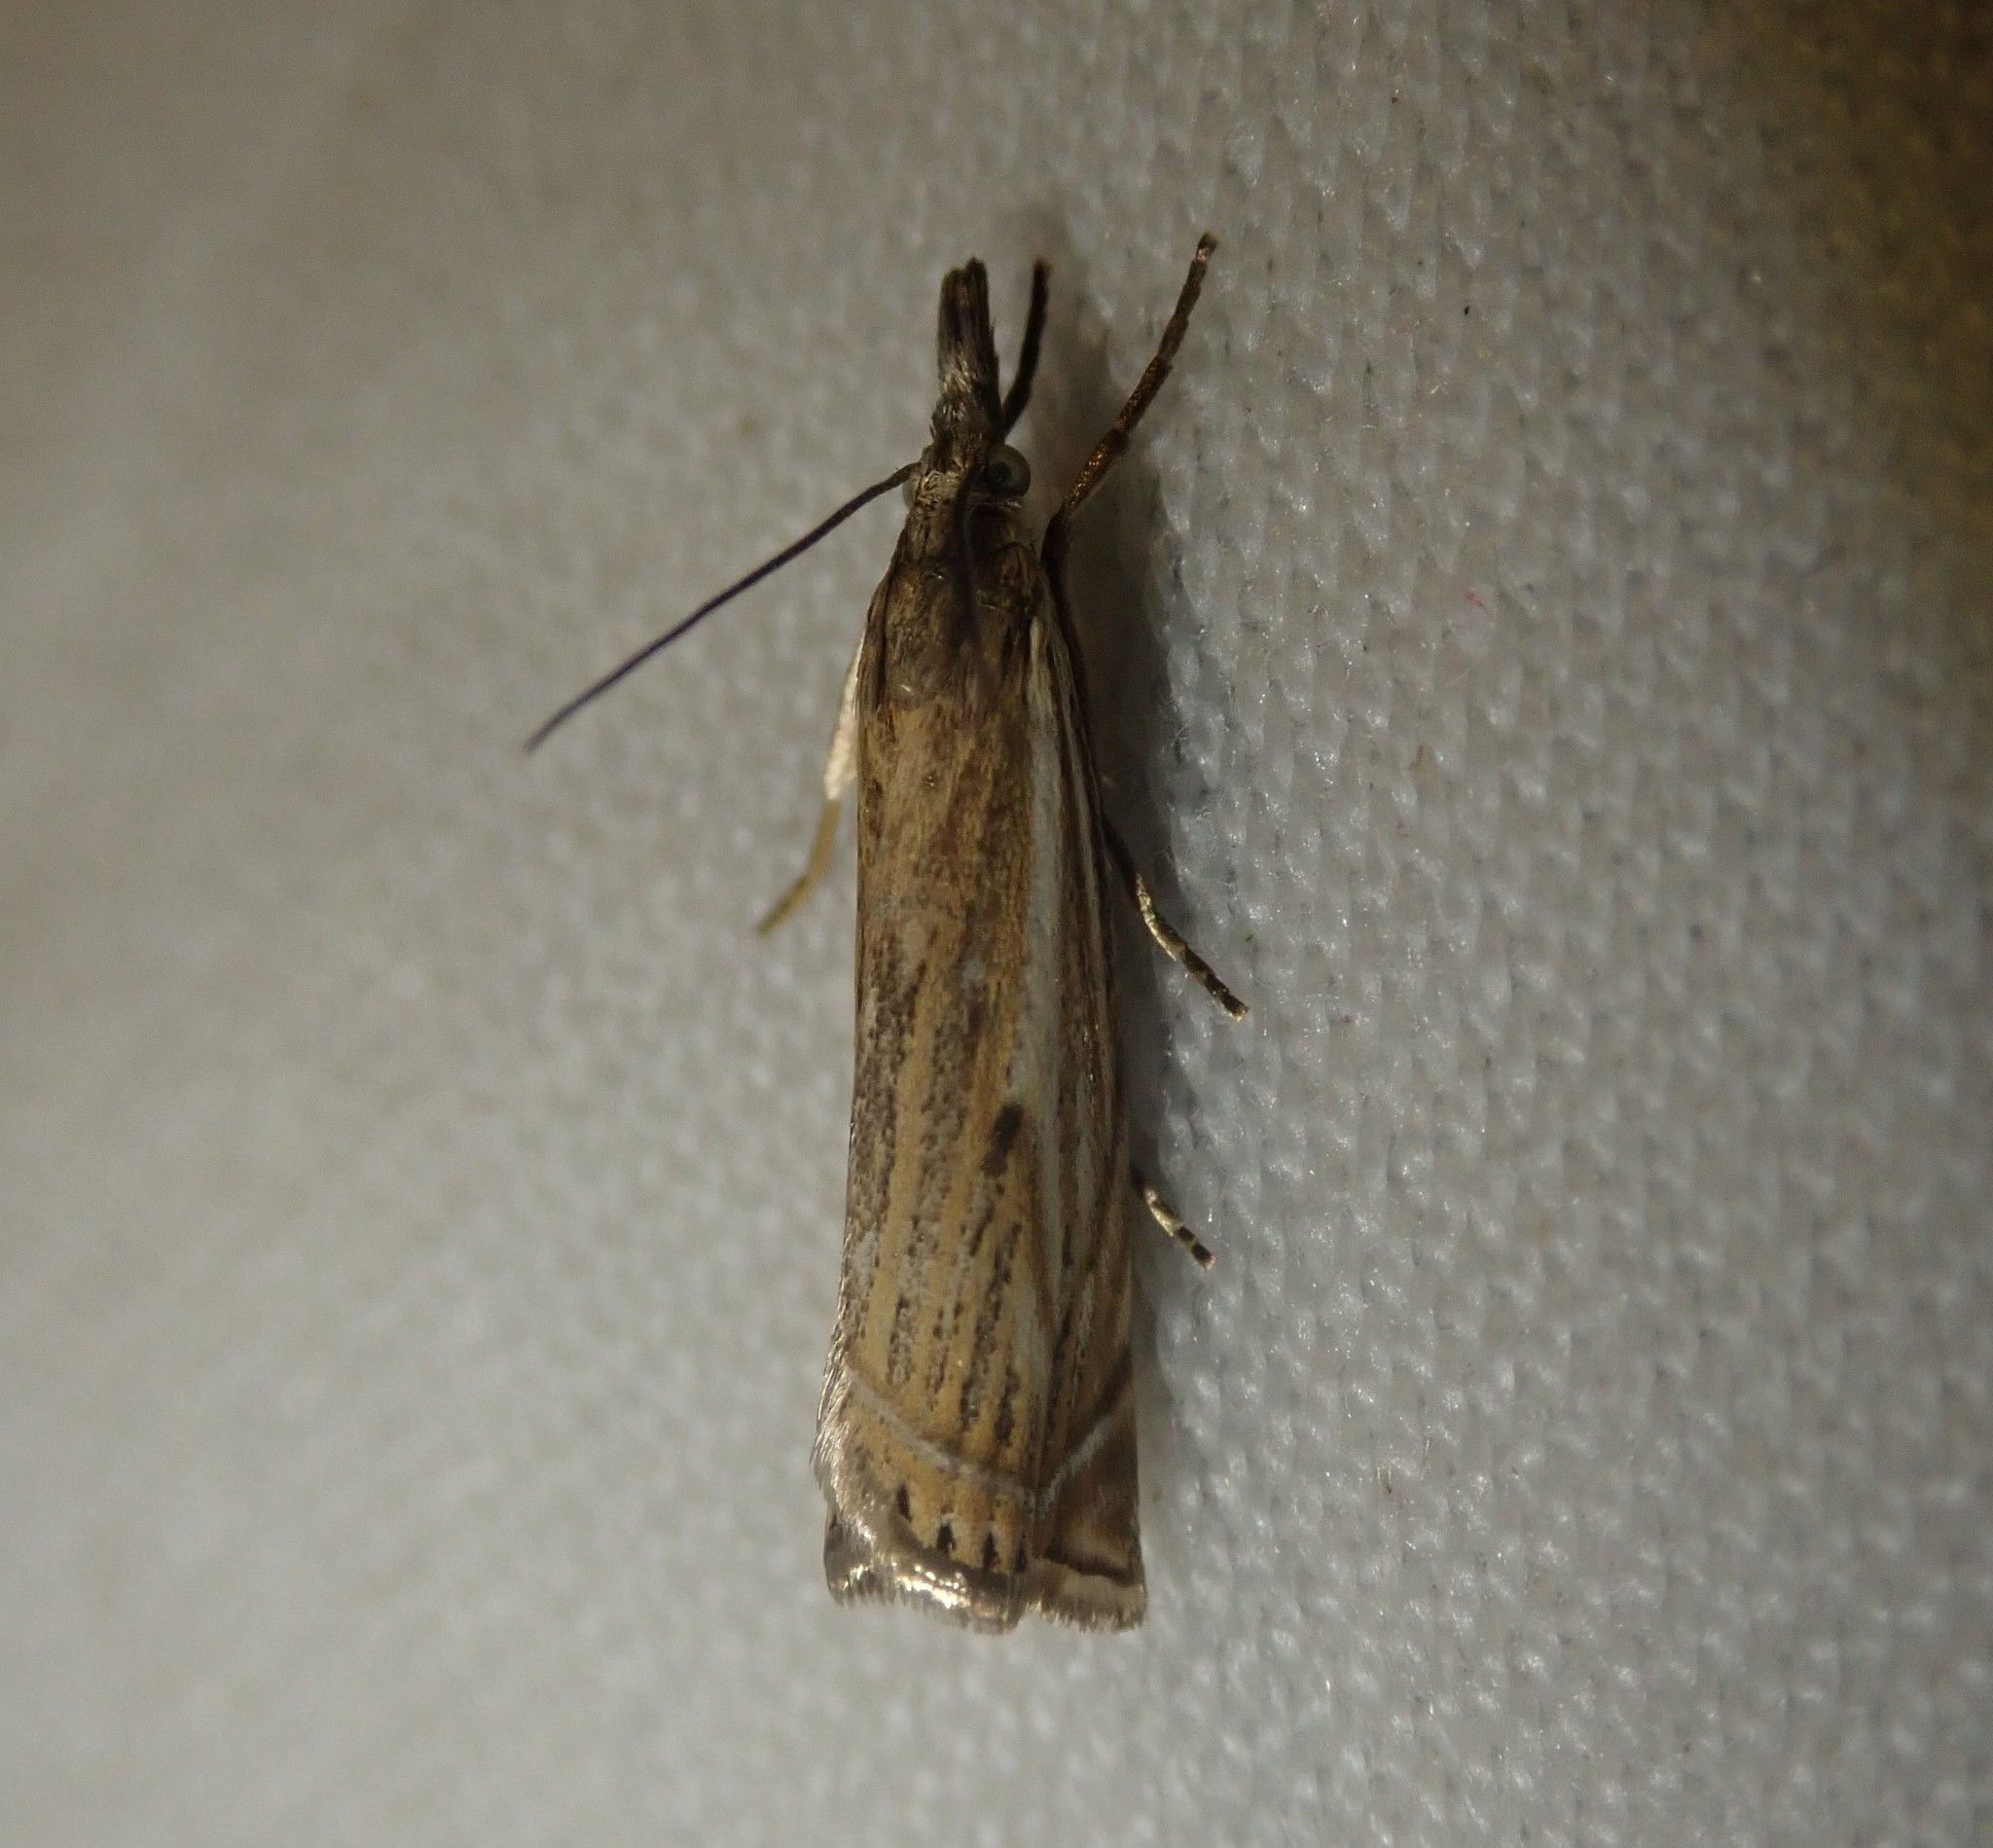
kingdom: Animalia
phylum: Arthropoda
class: Insecta
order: Lepidoptera
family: Crambidae
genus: Crambus
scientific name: Crambus nemorella
